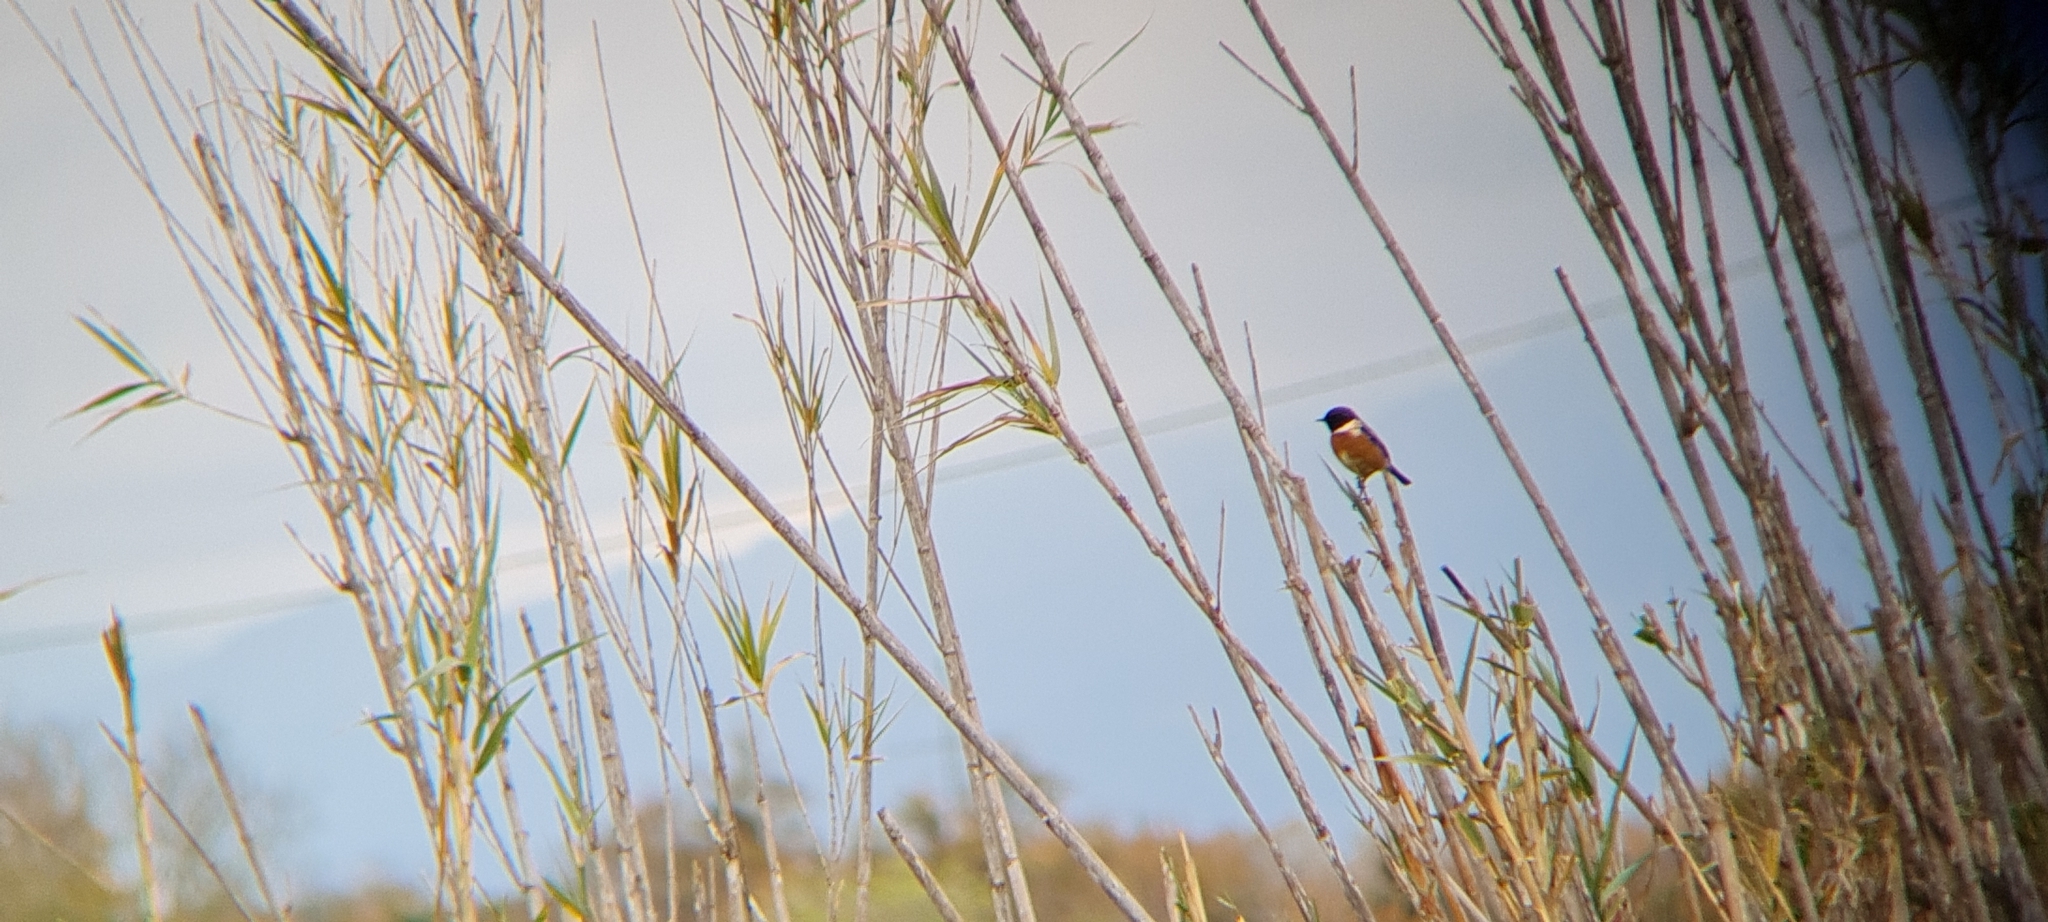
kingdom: Animalia
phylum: Chordata
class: Aves
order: Passeriformes
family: Muscicapidae
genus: Saxicola
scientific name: Saxicola rubicola
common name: European stonechat
